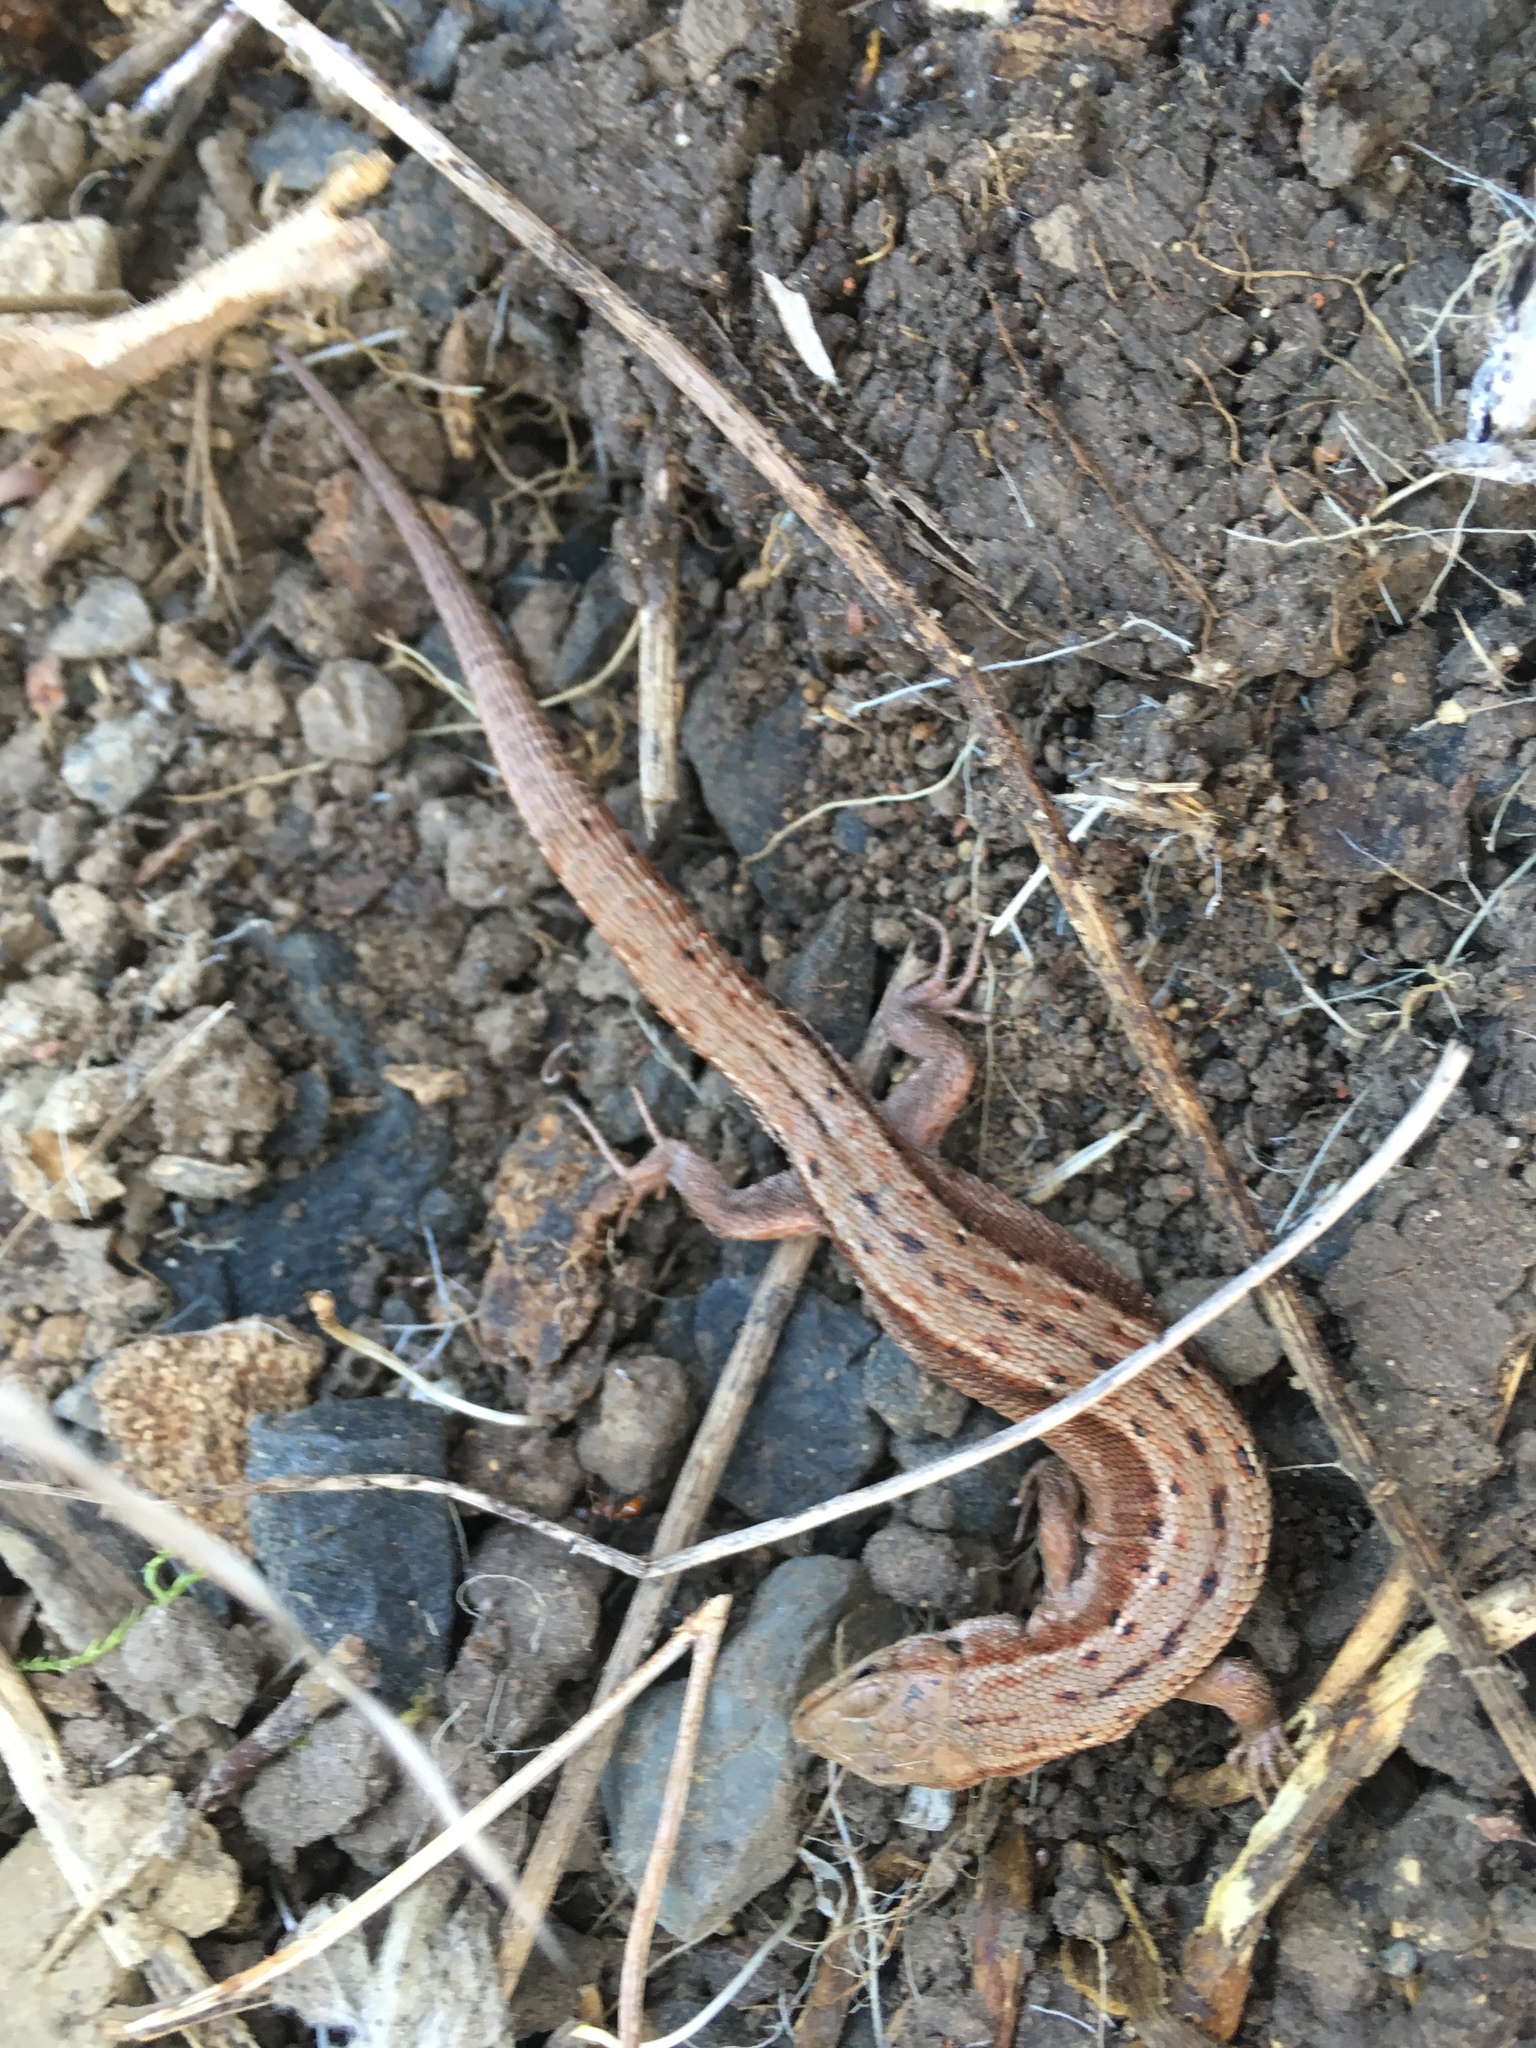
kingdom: Animalia
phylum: Chordata
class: Squamata
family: Lacertidae
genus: Zootoca
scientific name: Zootoca vivipara
